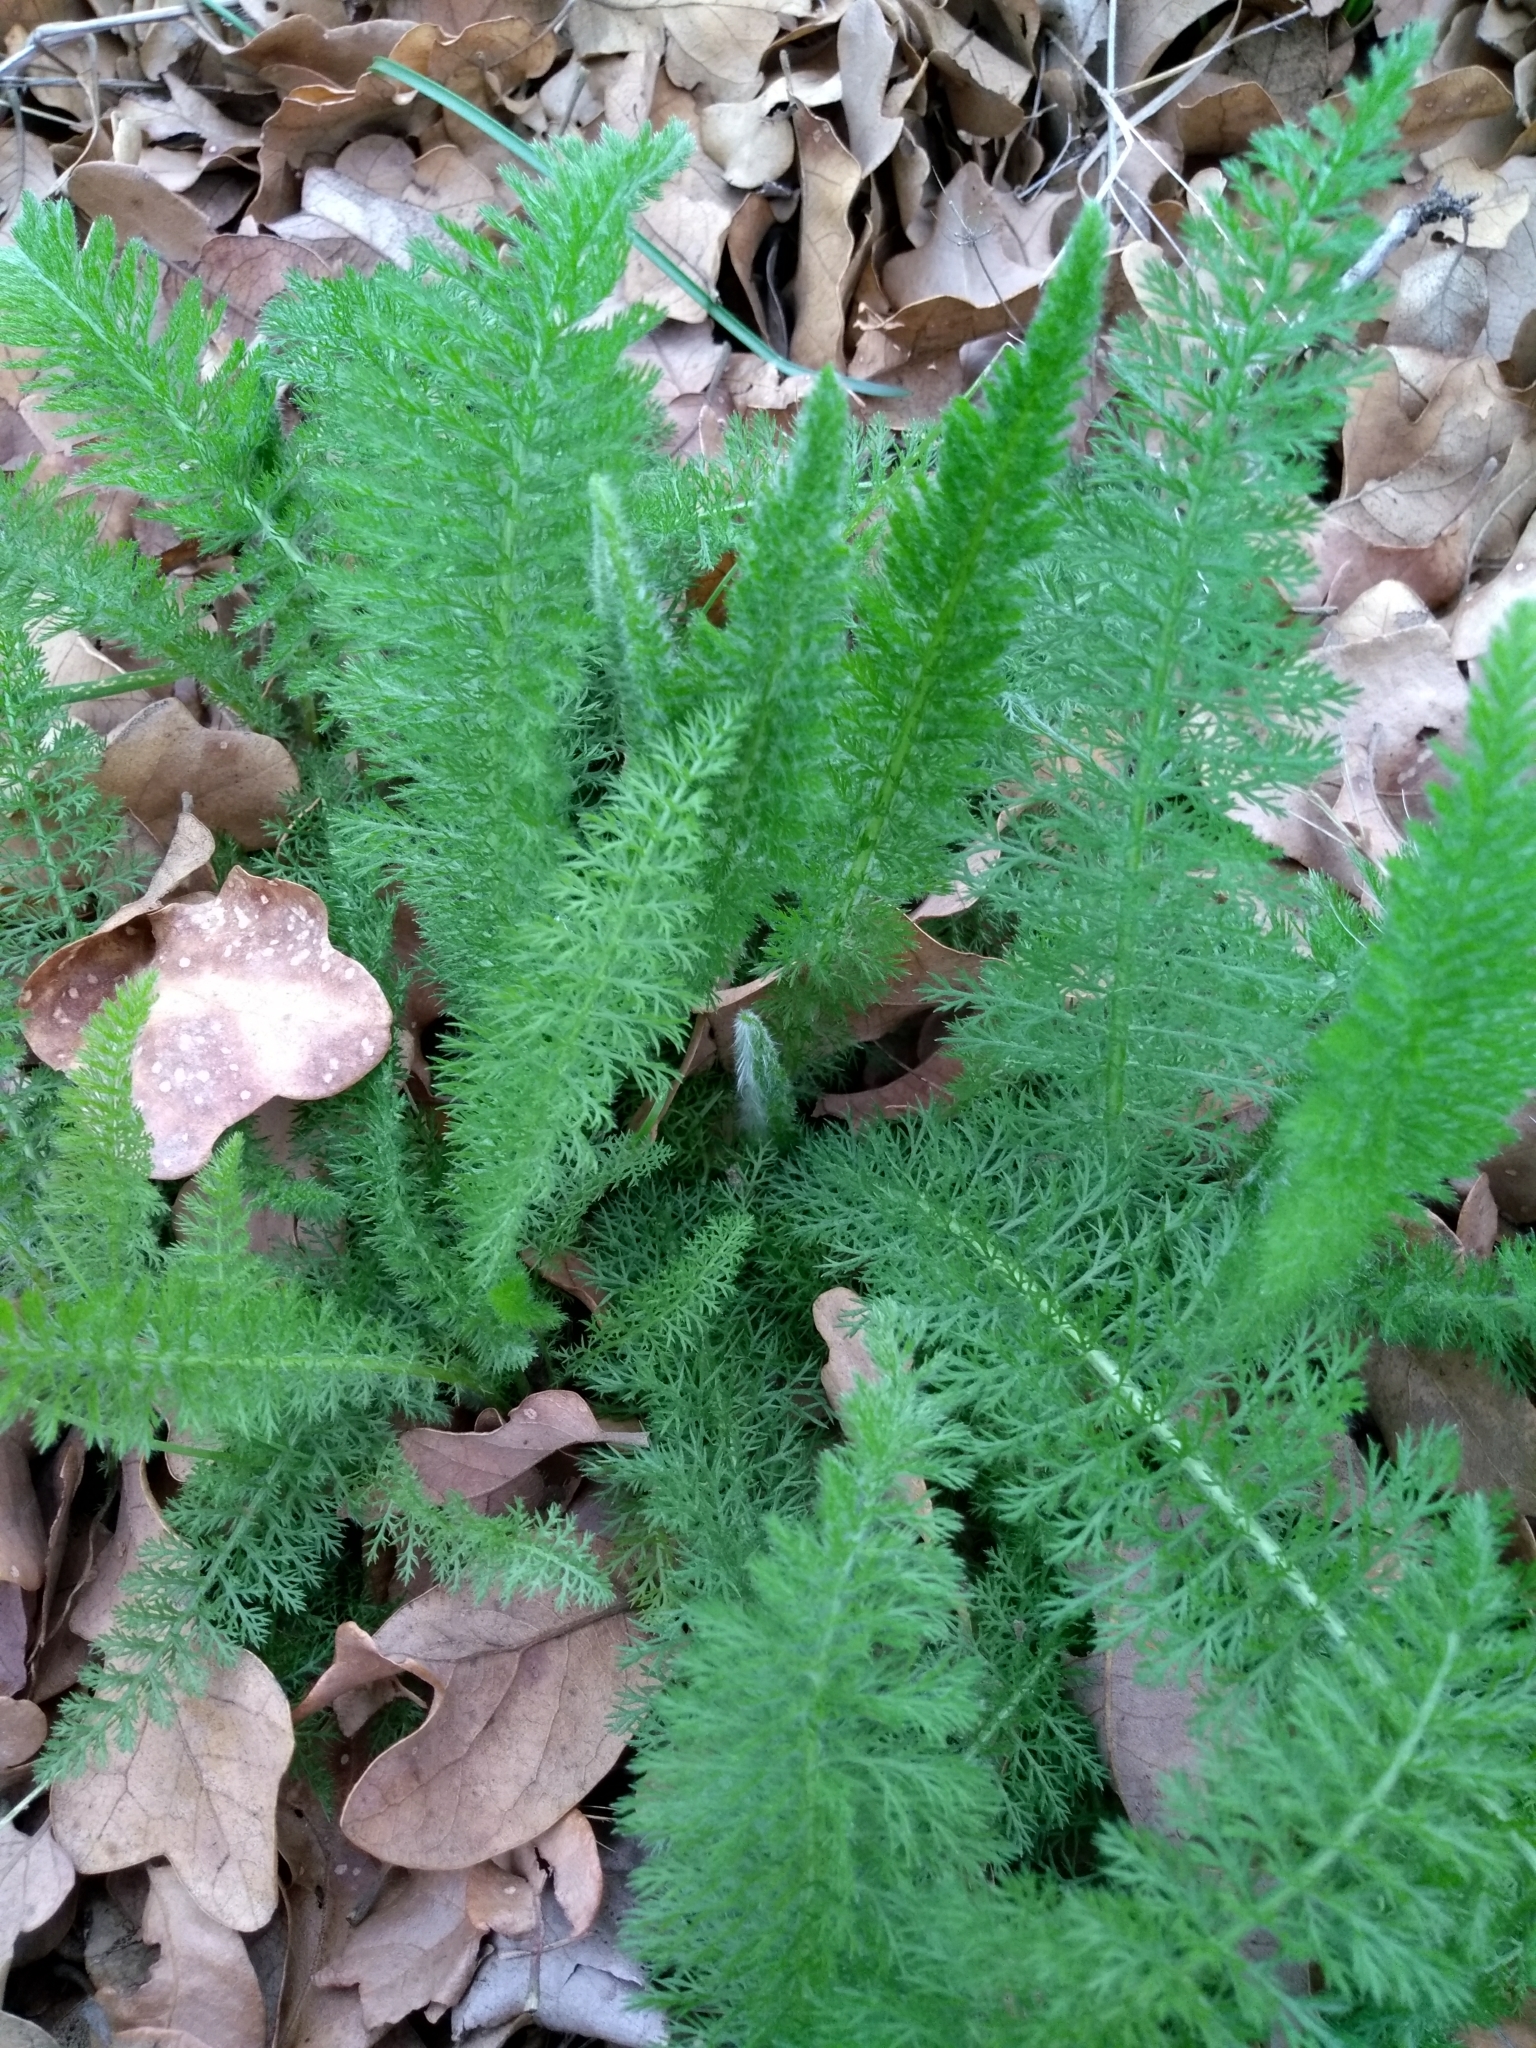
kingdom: Plantae
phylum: Tracheophyta
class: Magnoliopsida
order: Asterales
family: Asteraceae
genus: Achillea
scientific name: Achillea millefolium
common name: Yarrow
